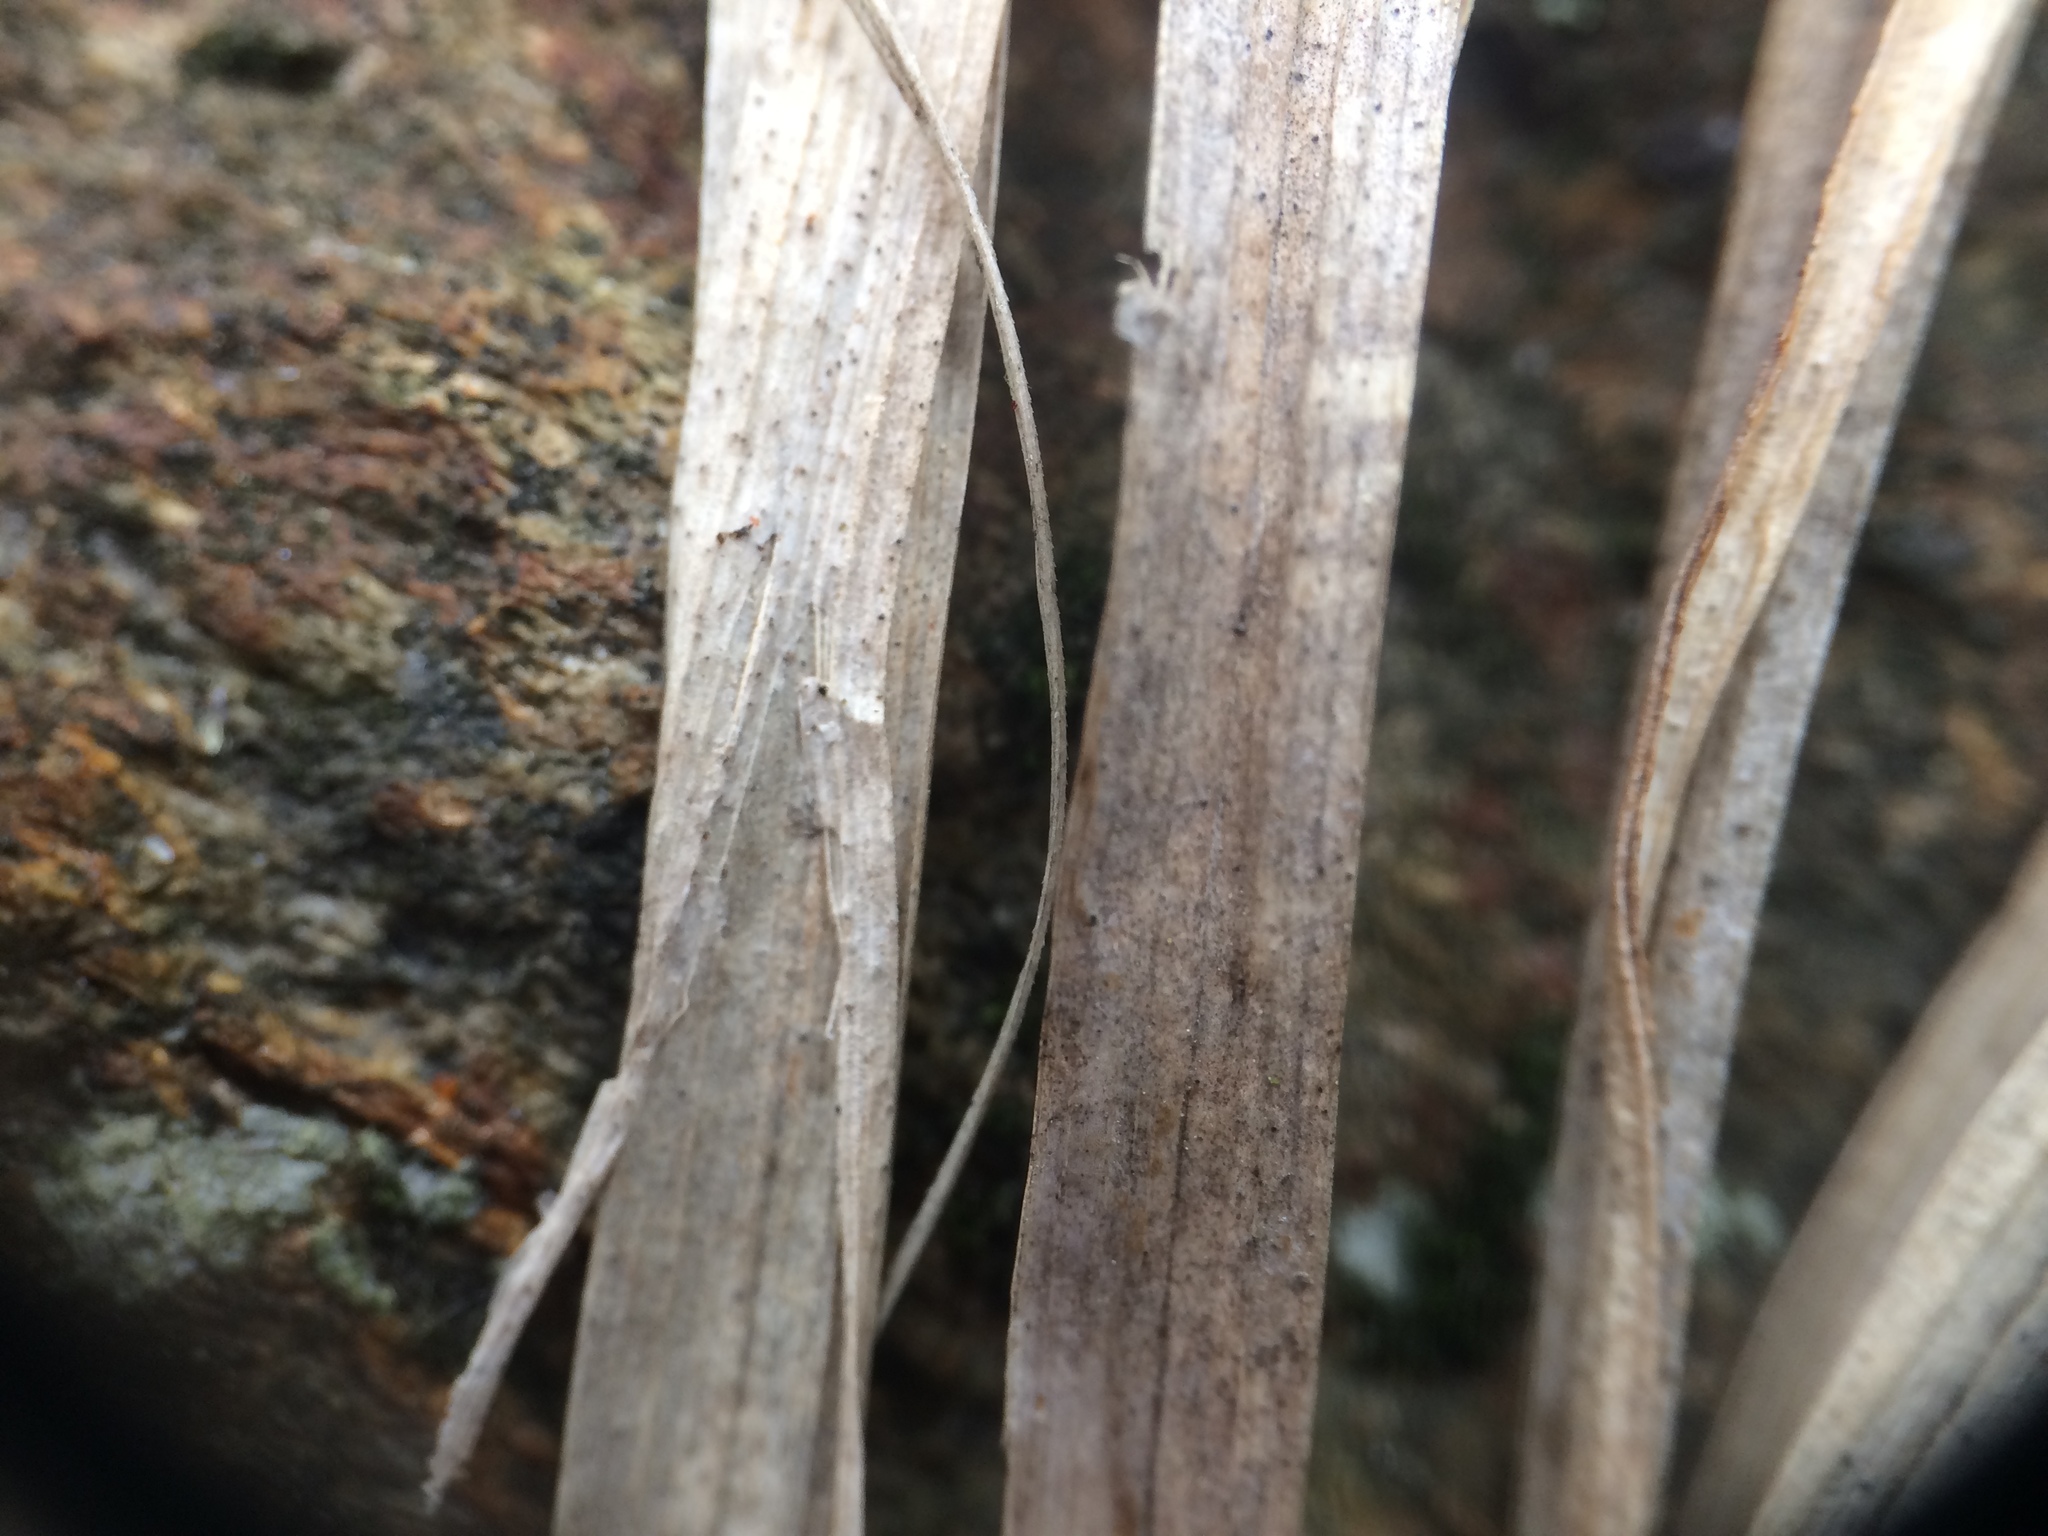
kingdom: Plantae
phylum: Tracheophyta
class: Liliopsida
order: Poales
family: Cyperaceae
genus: Carex
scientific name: Carex communis
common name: Colonial oak sedge
